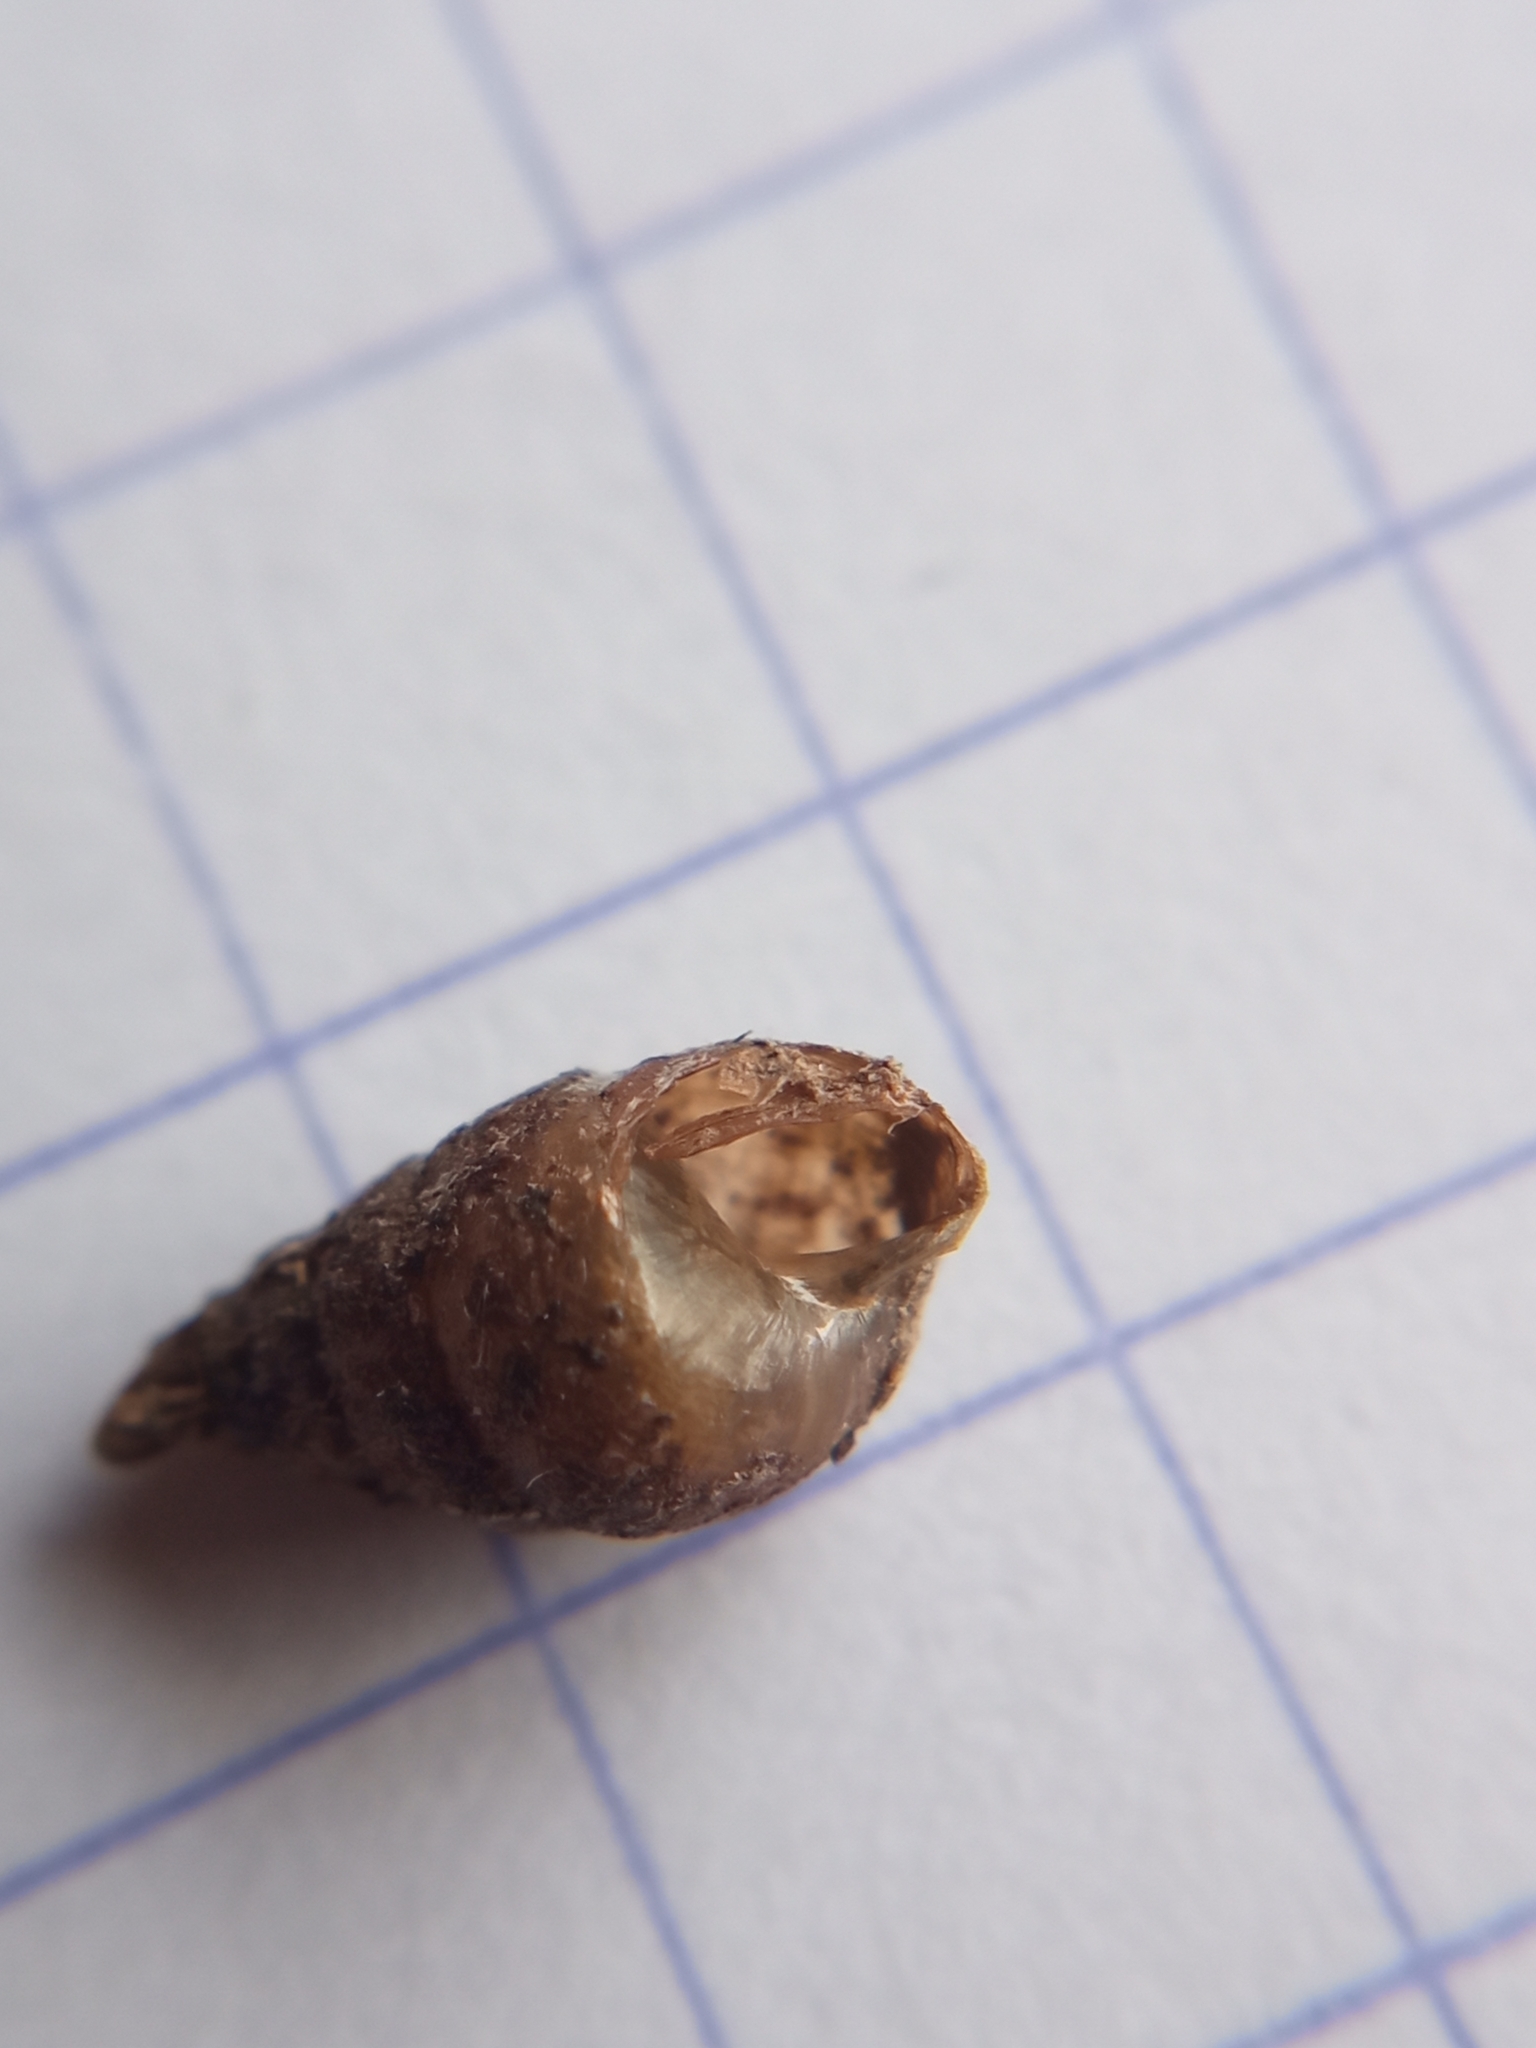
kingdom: Animalia
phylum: Mollusca
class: Gastropoda
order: Stylommatophora
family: Enidae
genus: Merdigera
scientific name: Merdigera obscura
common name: Lesser bulin
